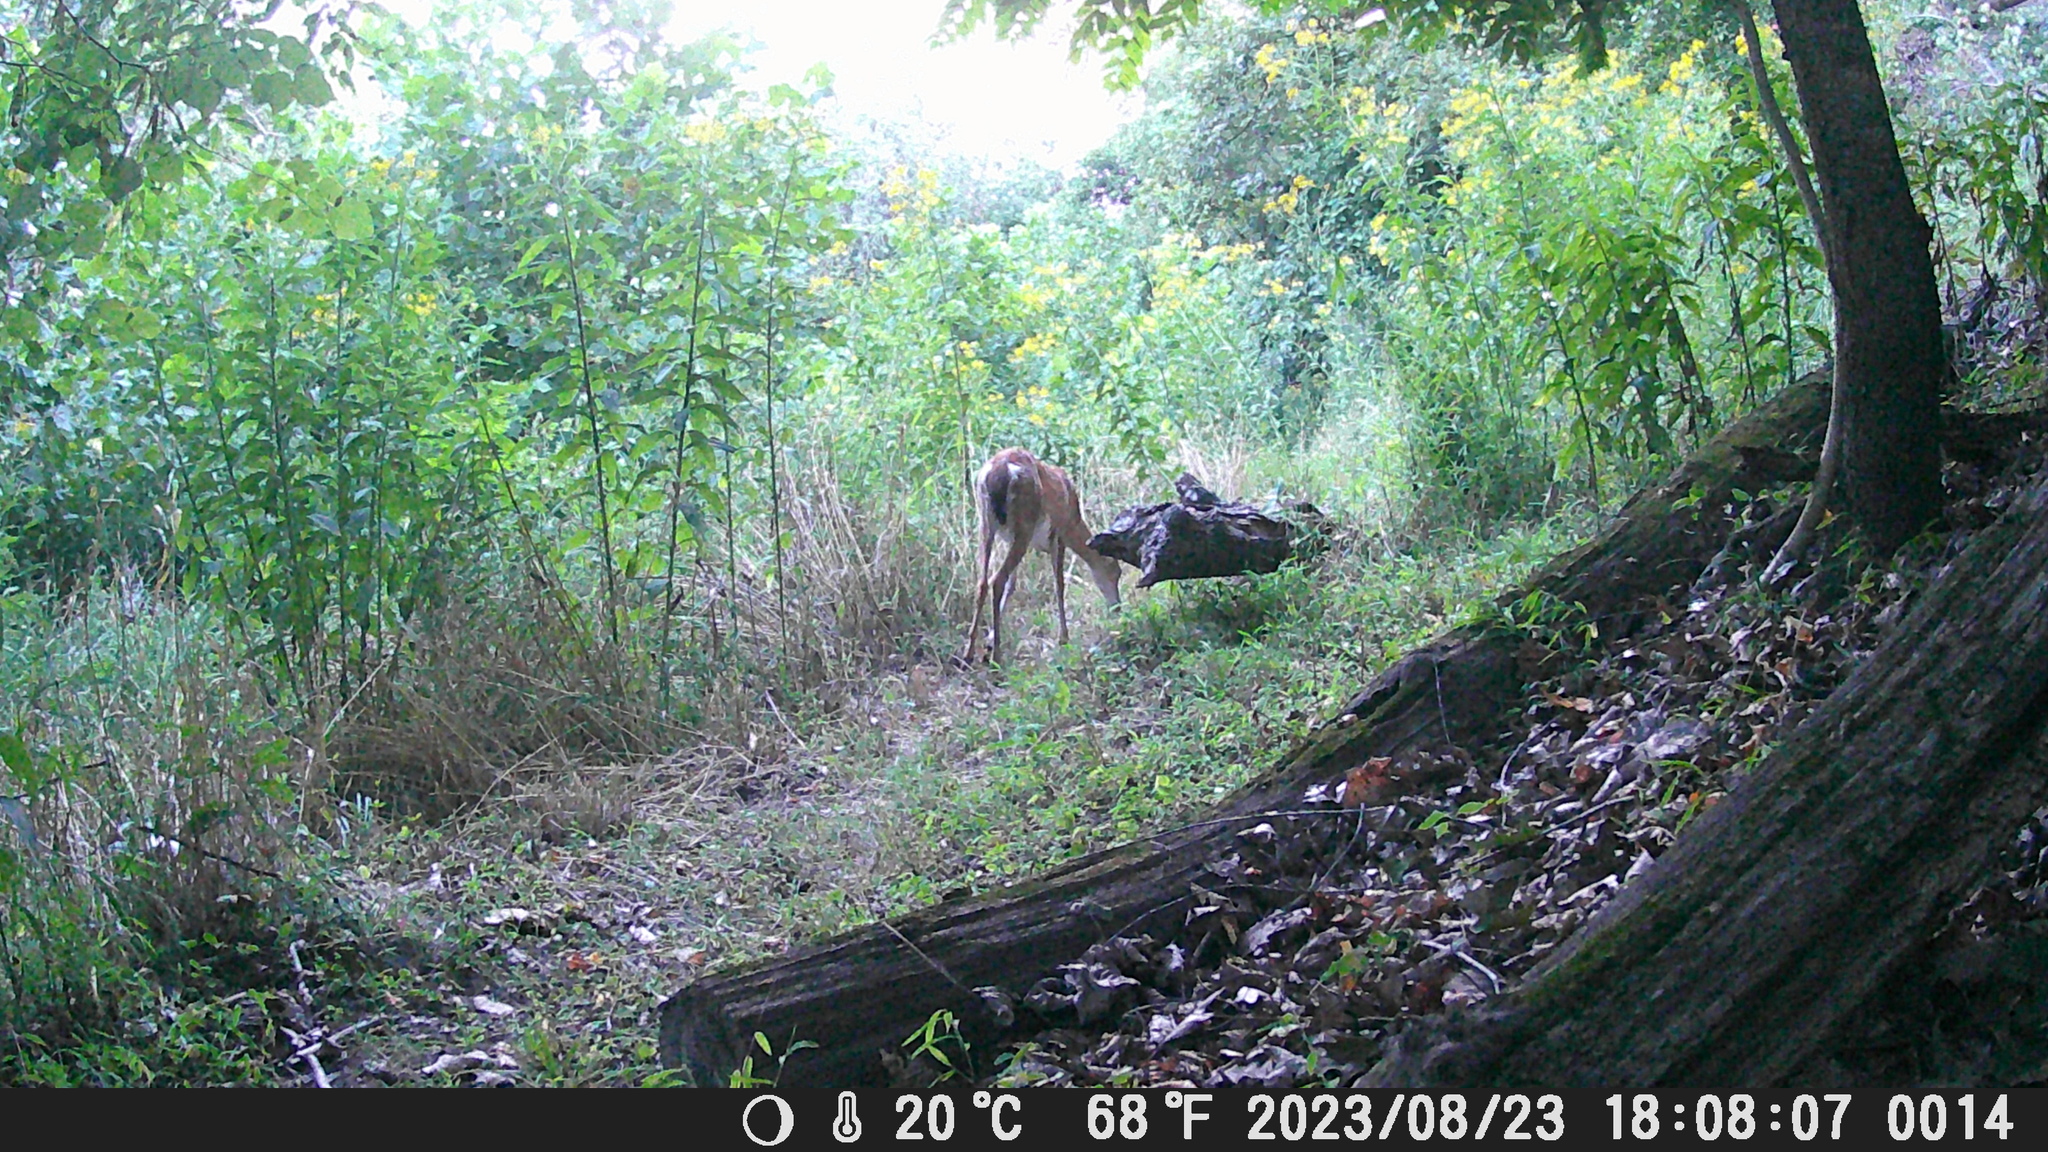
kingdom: Animalia
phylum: Chordata
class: Mammalia
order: Artiodactyla
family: Cervidae
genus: Odocoileus
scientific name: Odocoileus virginianus
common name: White-tailed deer
